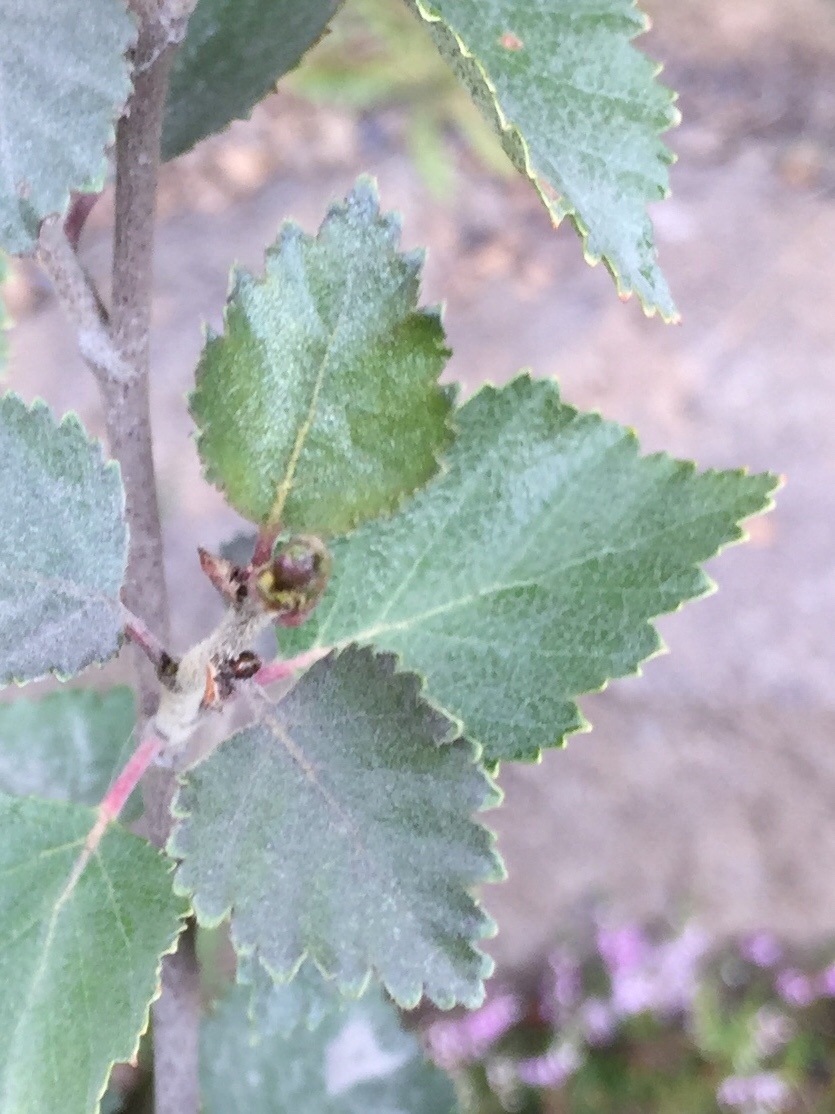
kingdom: Plantae
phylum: Tracheophyta
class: Magnoliopsida
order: Fagales
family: Betulaceae
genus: Betula
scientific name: Betula pubescens
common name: Downy birch
